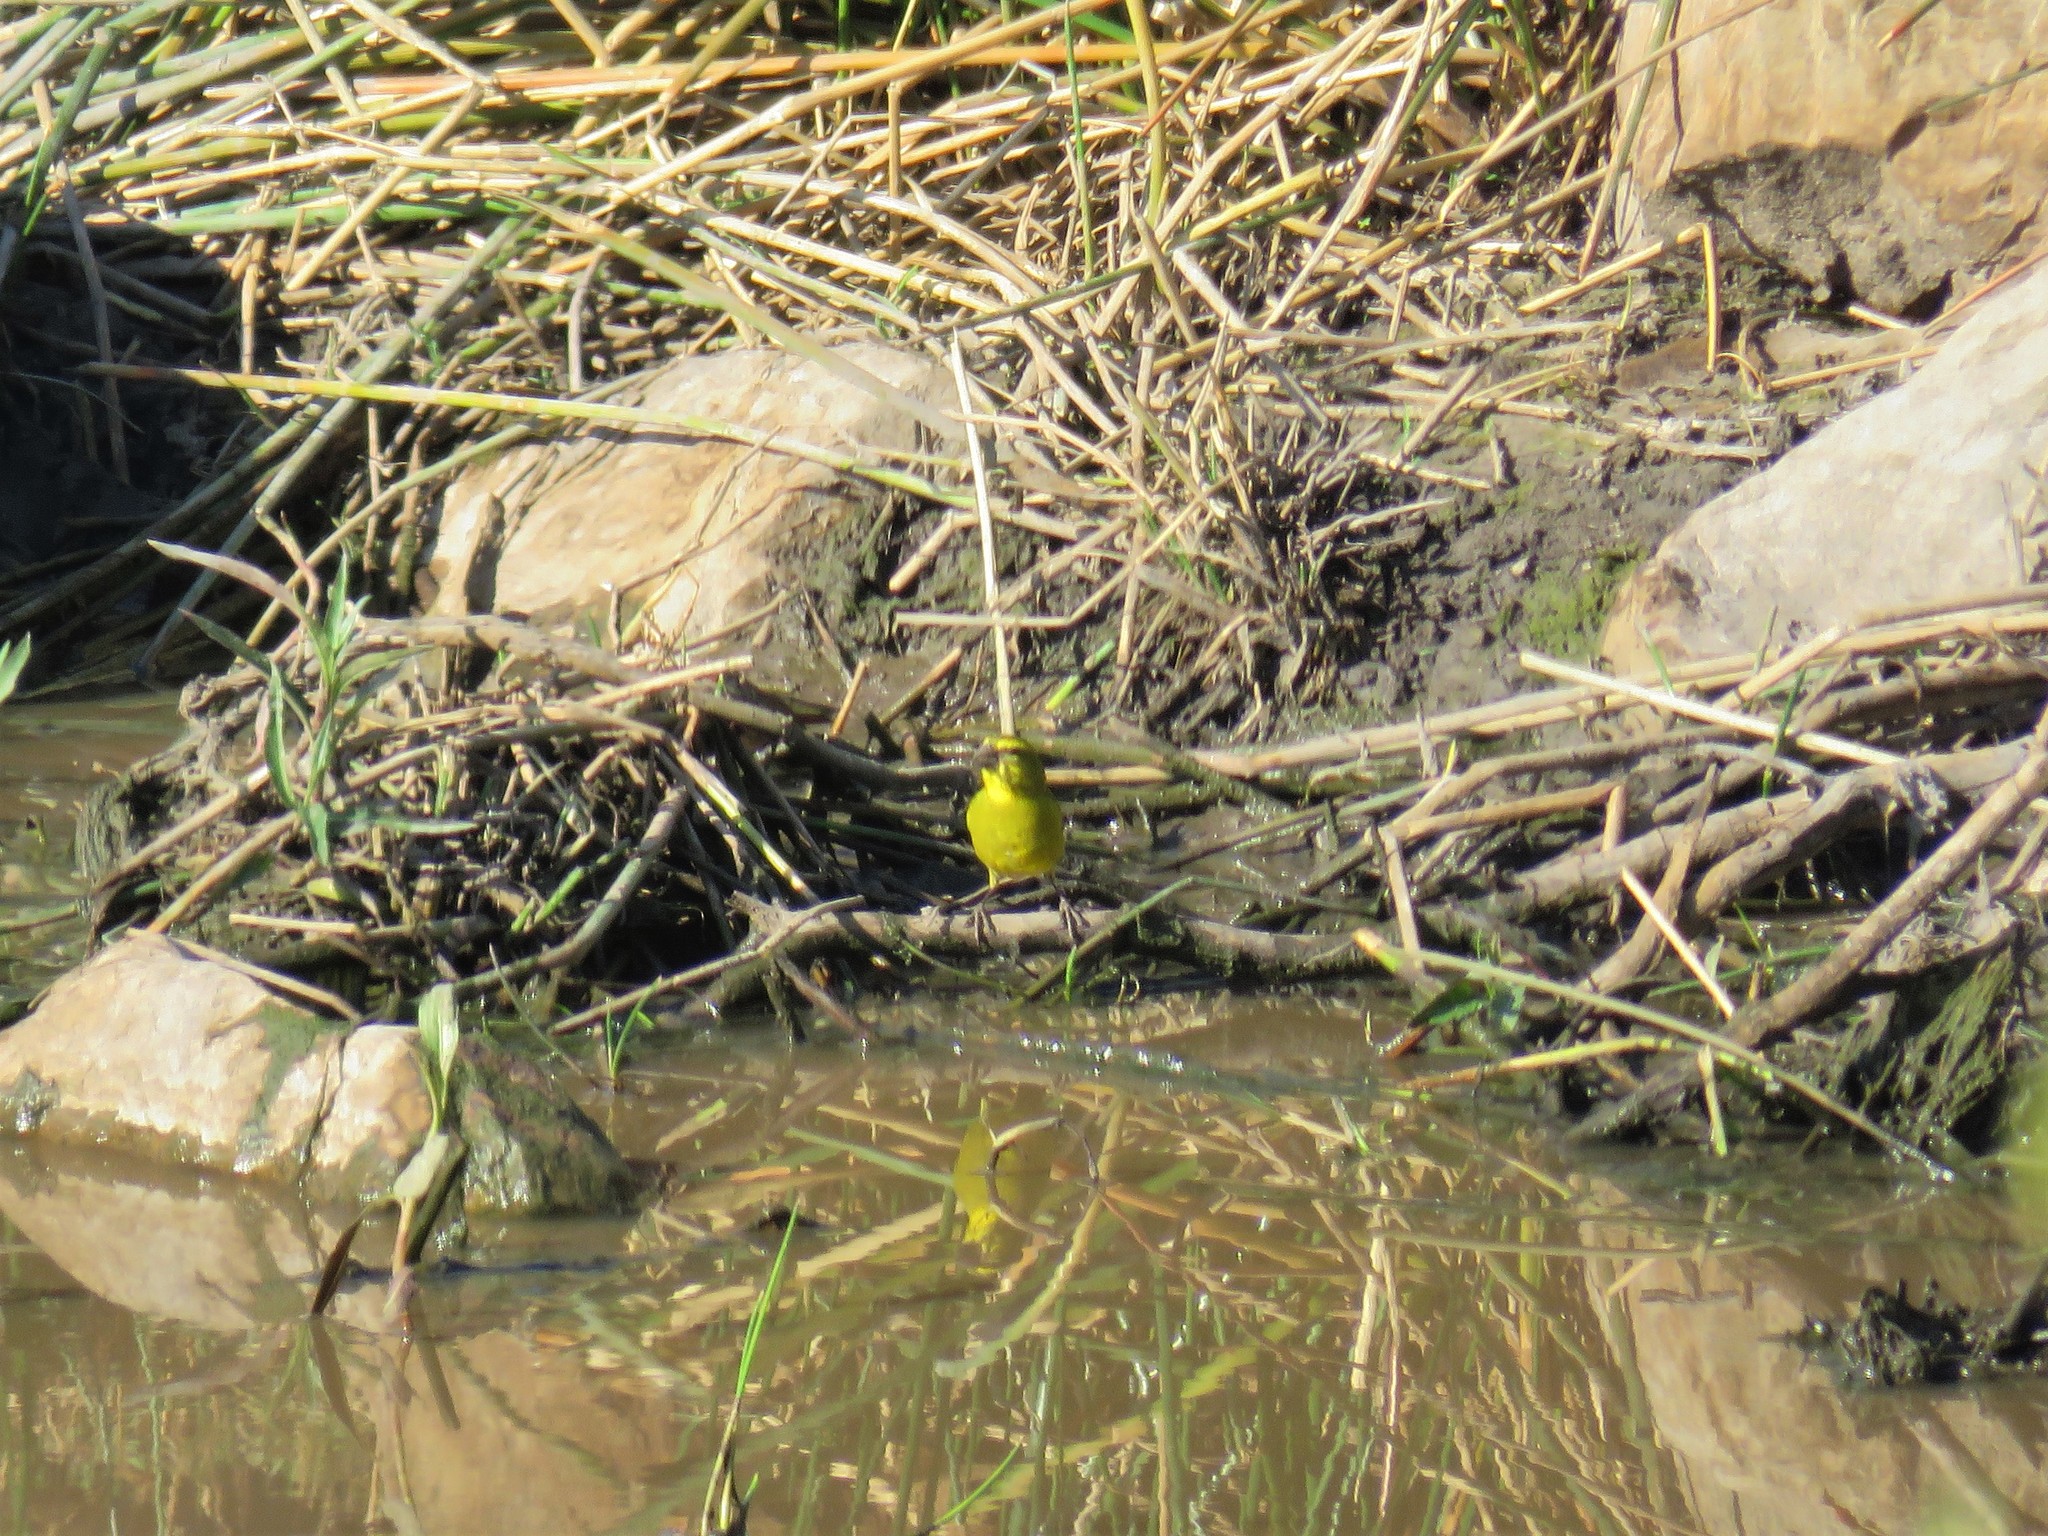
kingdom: Animalia
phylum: Chordata
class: Aves
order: Passeriformes
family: Fringillidae
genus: Crithagra
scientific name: Crithagra sulphurata
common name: Brimstone canary
